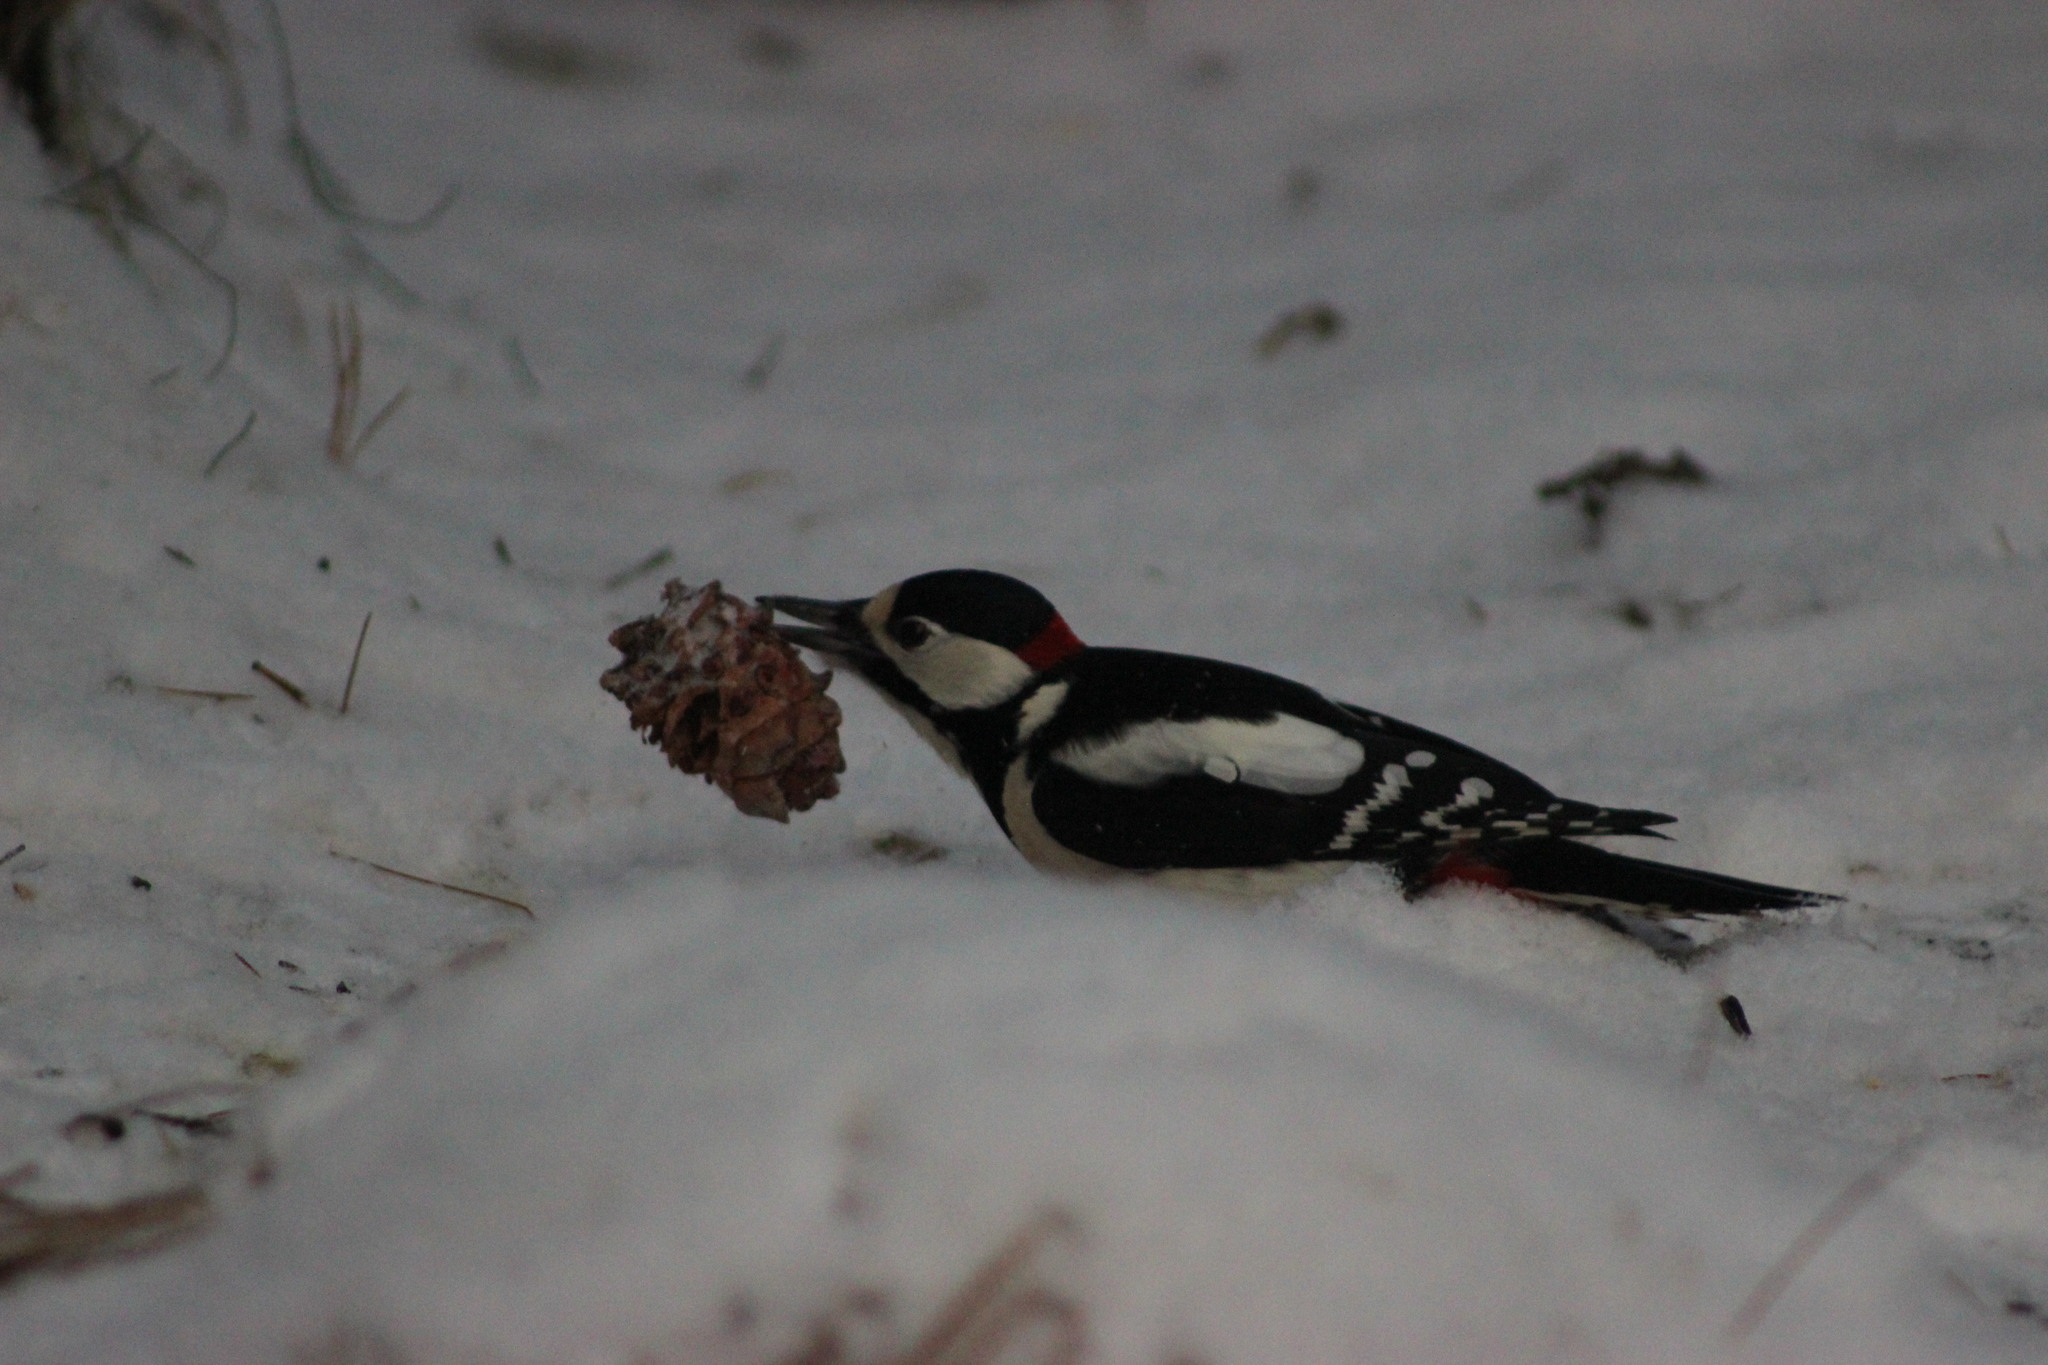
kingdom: Animalia
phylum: Chordata
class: Aves
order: Piciformes
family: Picidae
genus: Dendrocopos
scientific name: Dendrocopos major
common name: Great spotted woodpecker
